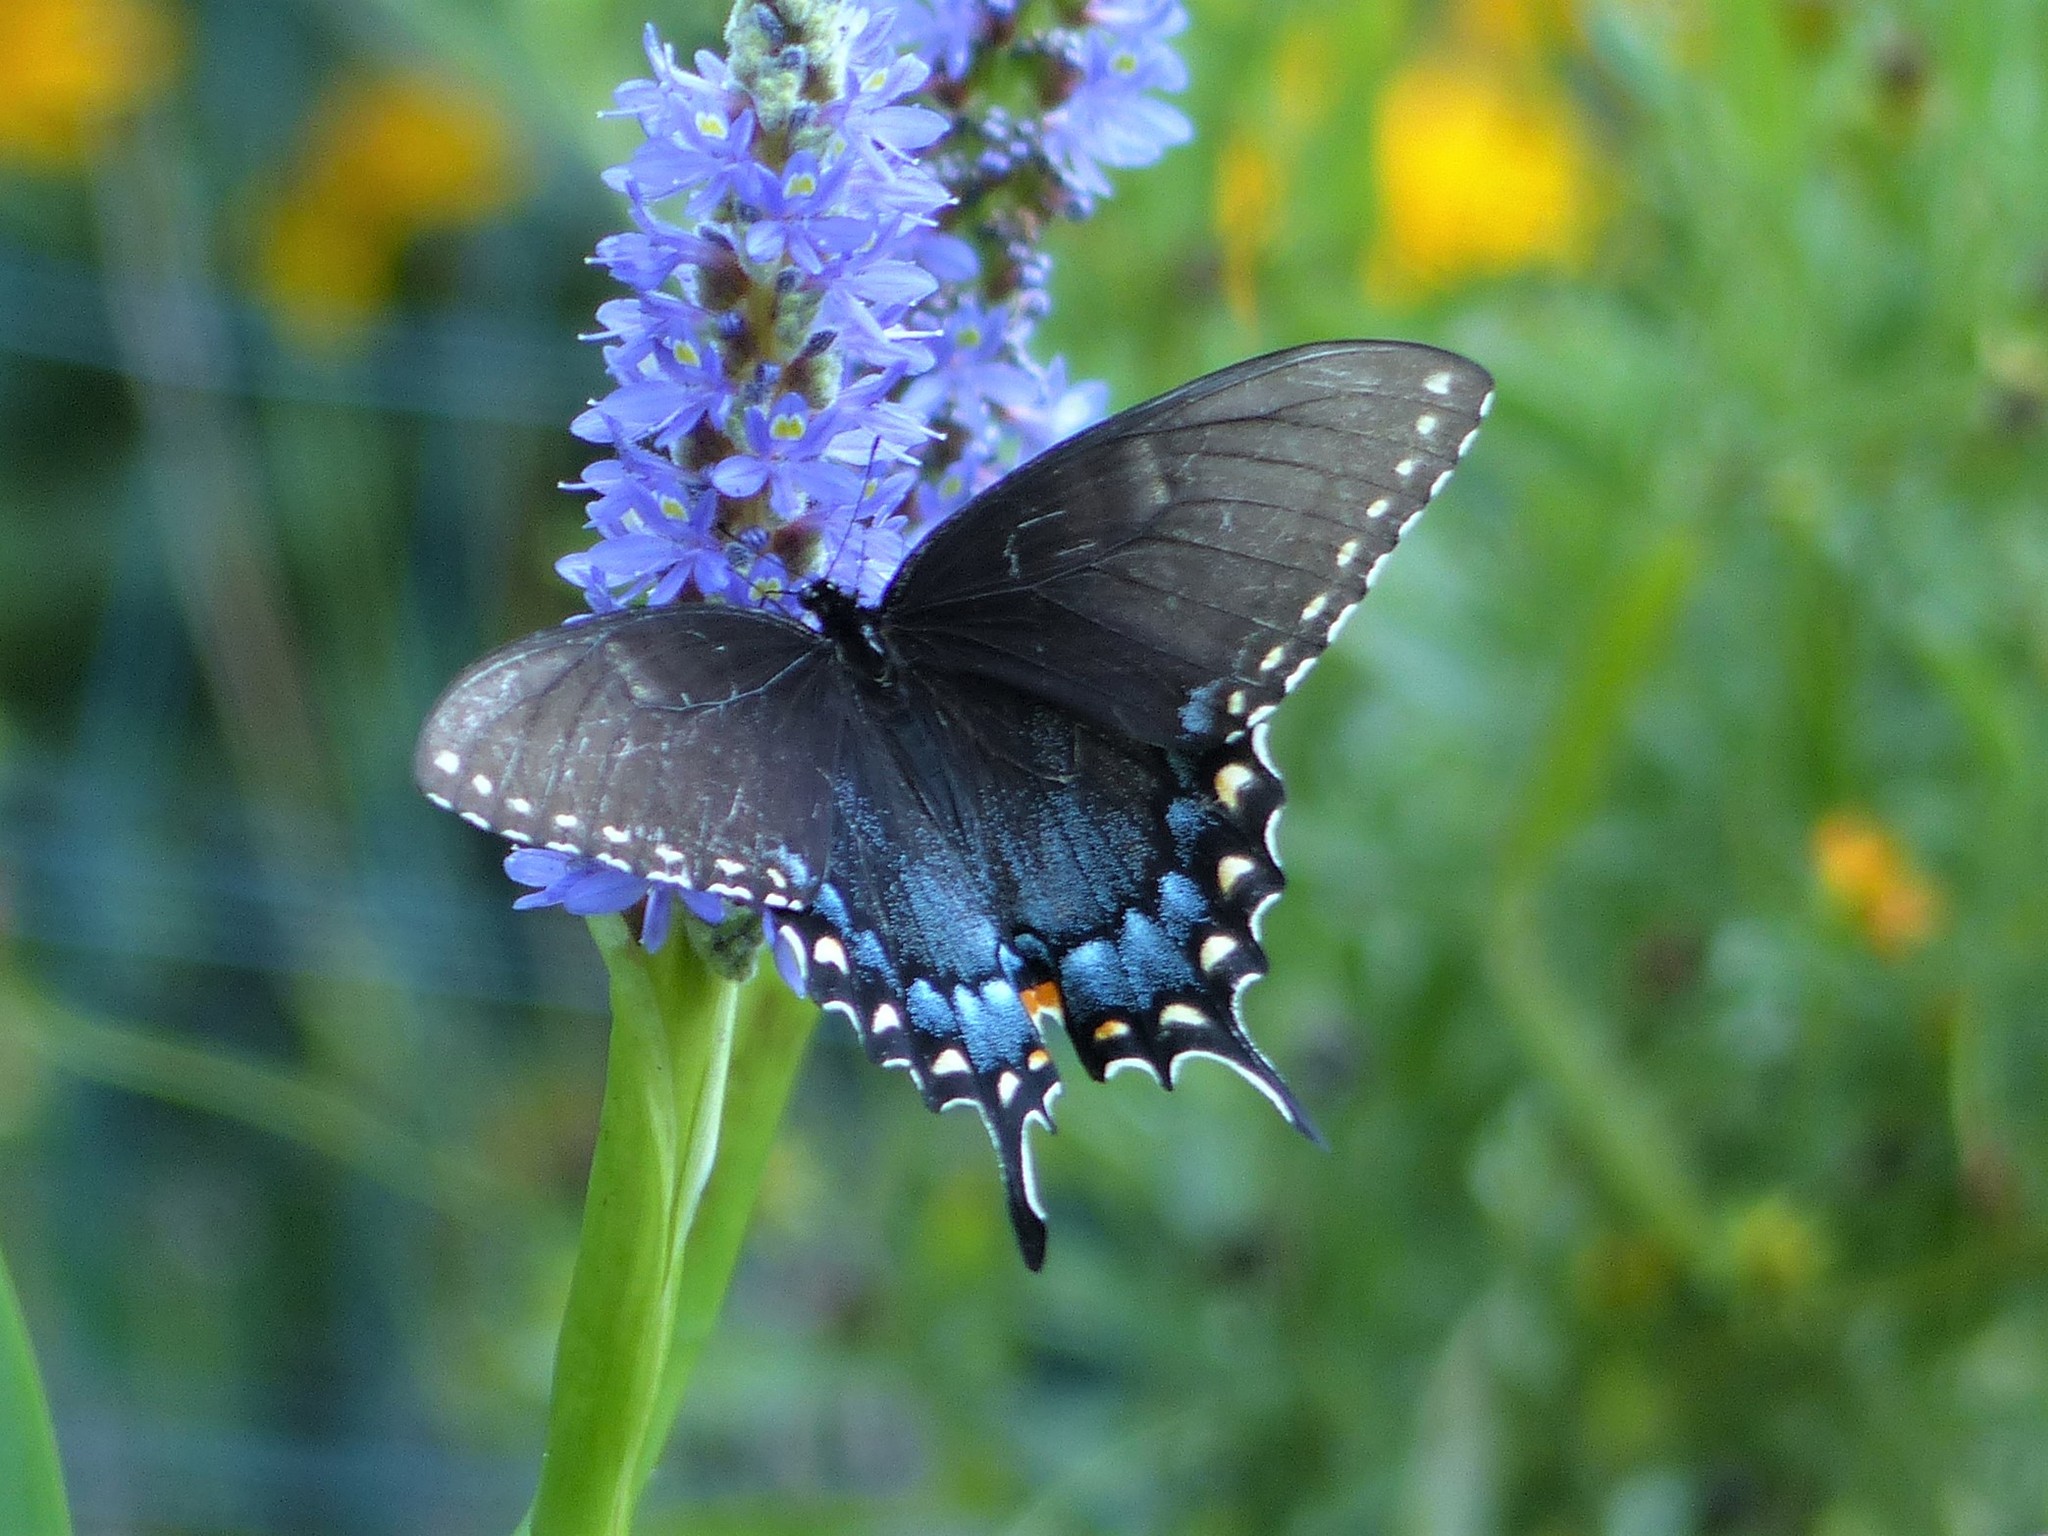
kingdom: Animalia
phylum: Arthropoda
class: Insecta
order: Lepidoptera
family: Papilionidae
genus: Papilio
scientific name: Papilio glaucus
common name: Tiger swallowtail
